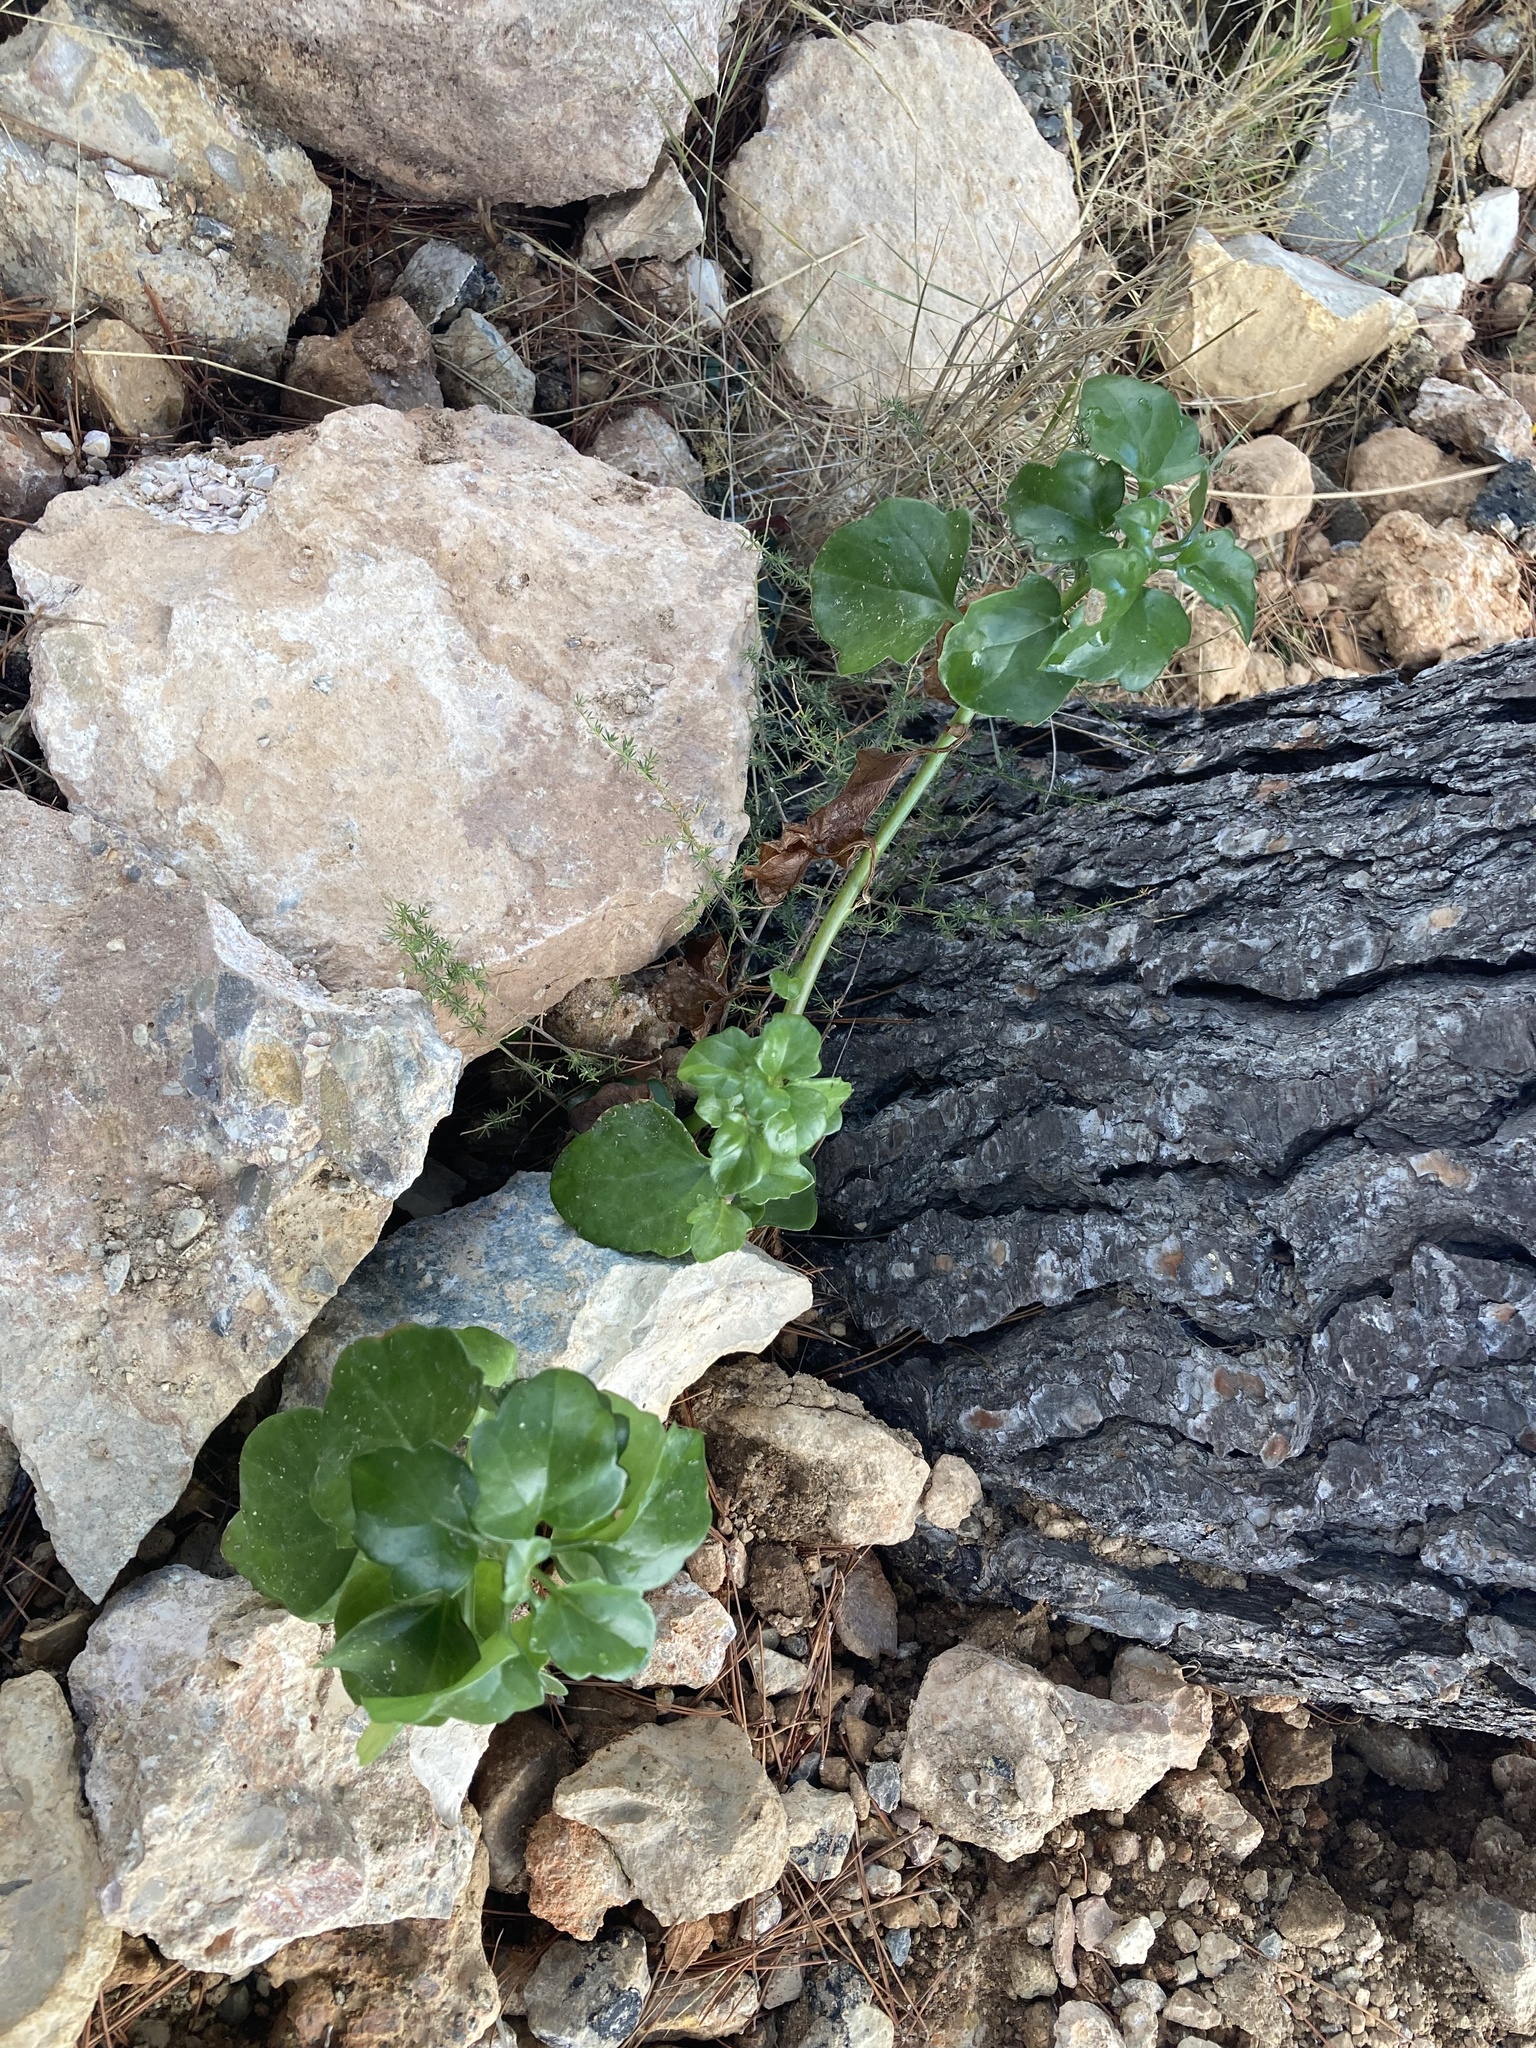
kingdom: Plantae
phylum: Tracheophyta
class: Magnoliopsida
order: Asterales
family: Asteraceae
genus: Senecio
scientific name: Senecio angulatus
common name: Climbing groundsel
